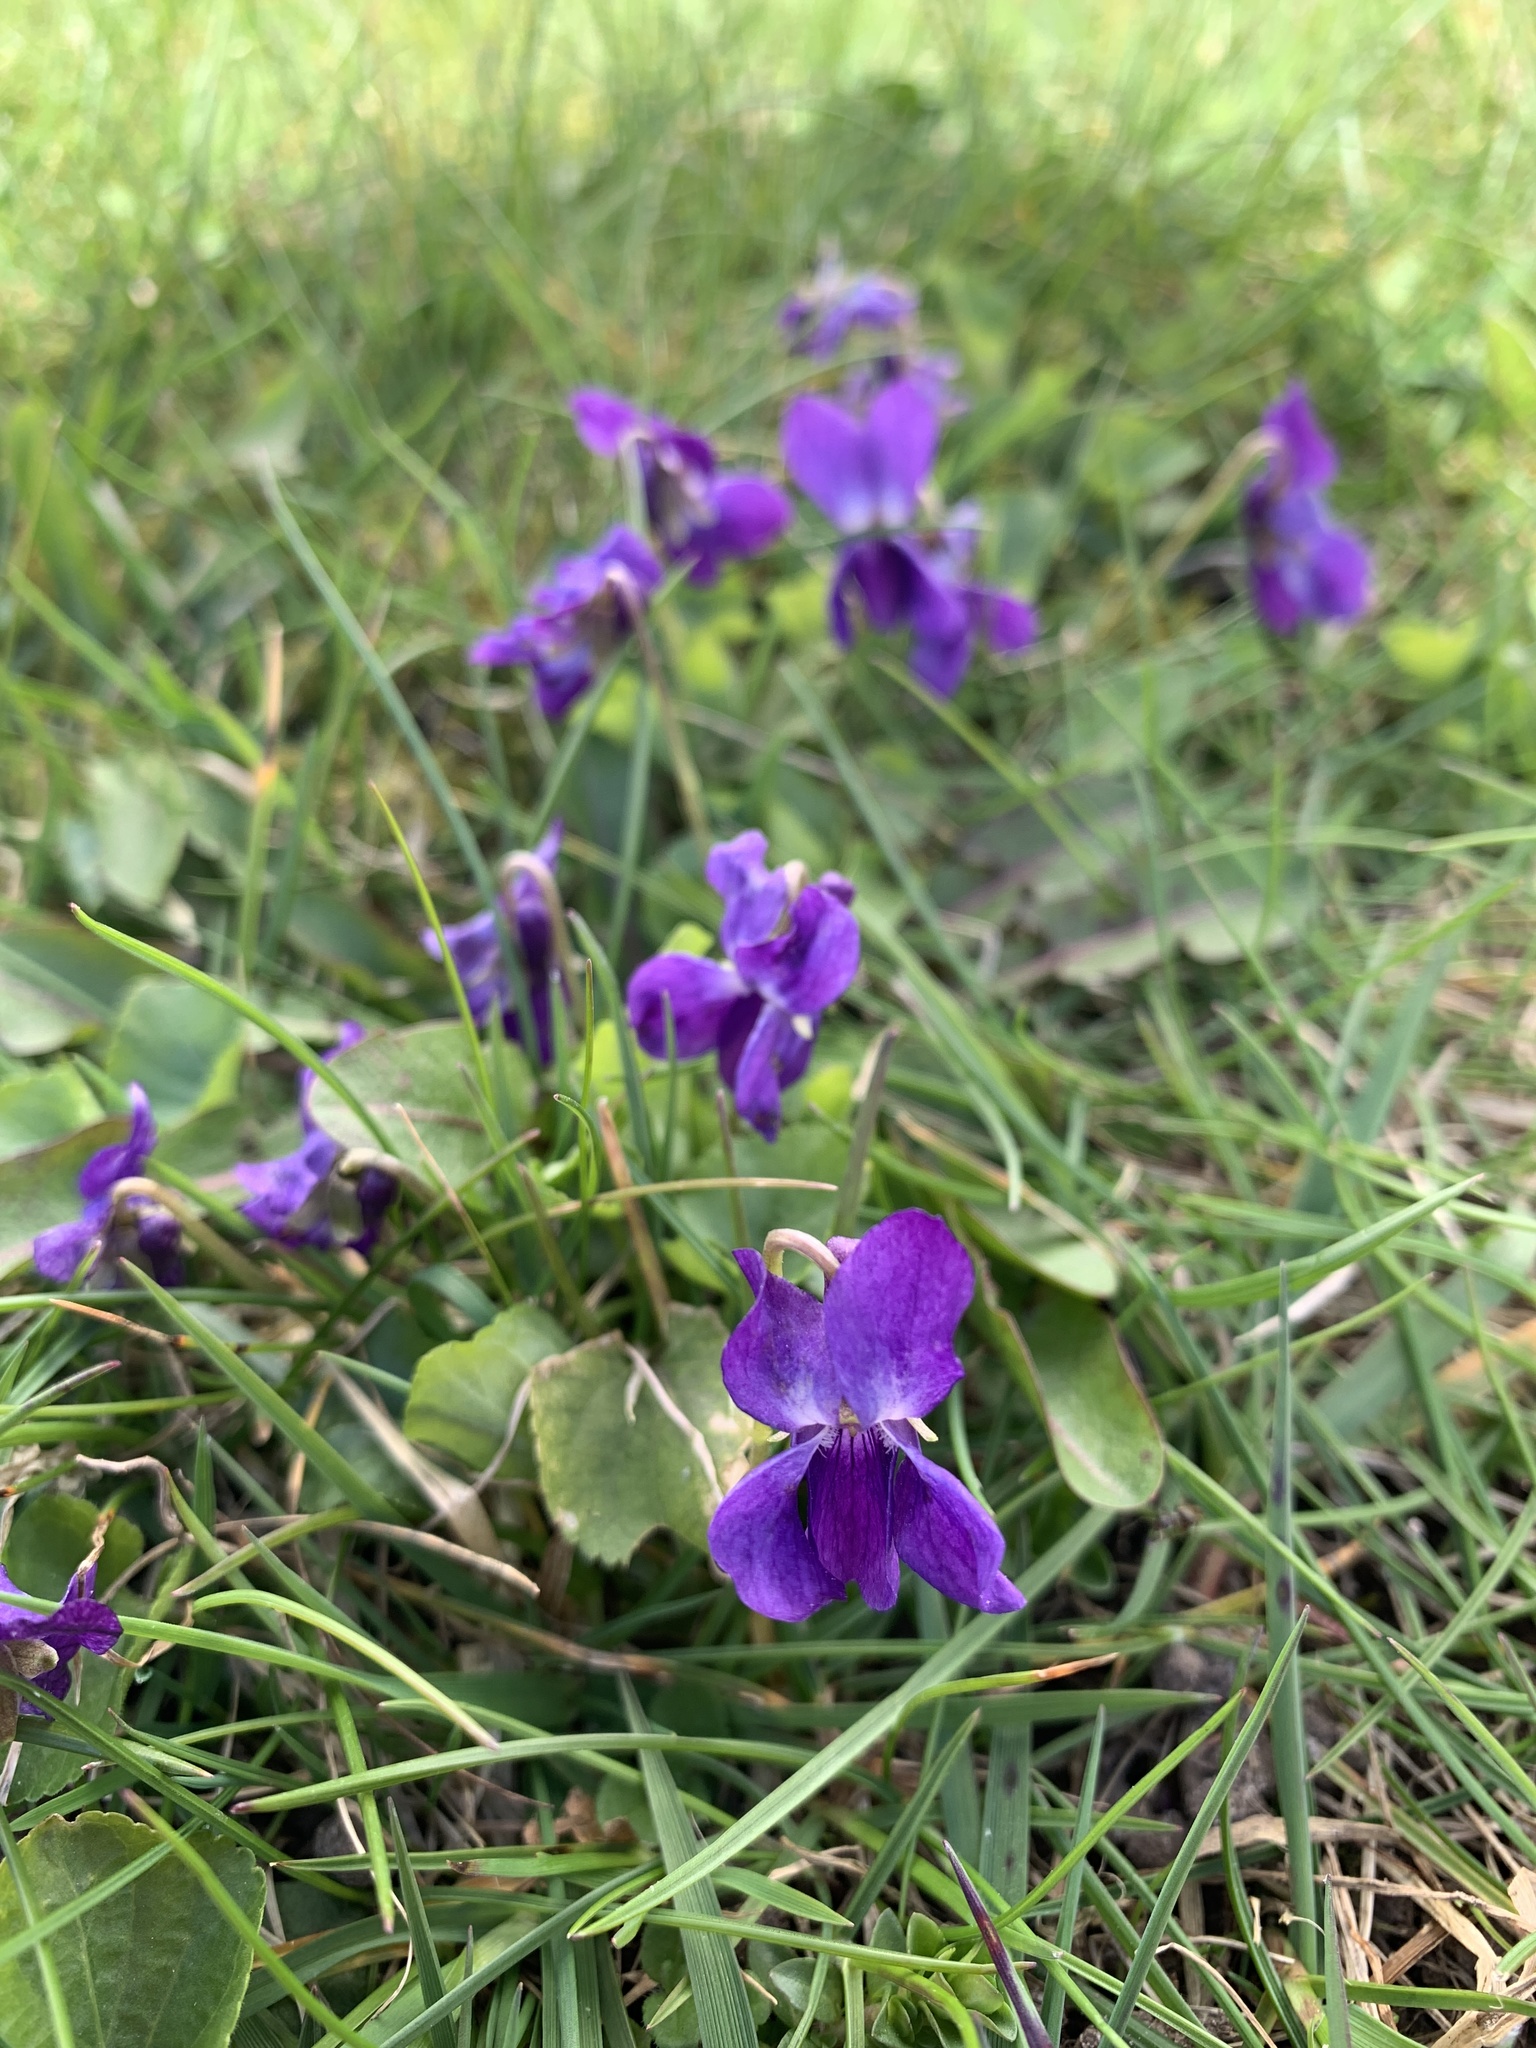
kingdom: Plantae
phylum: Tracheophyta
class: Magnoliopsida
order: Malpighiales
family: Violaceae
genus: Viola
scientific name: Viola odorata
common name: Sweet violet
